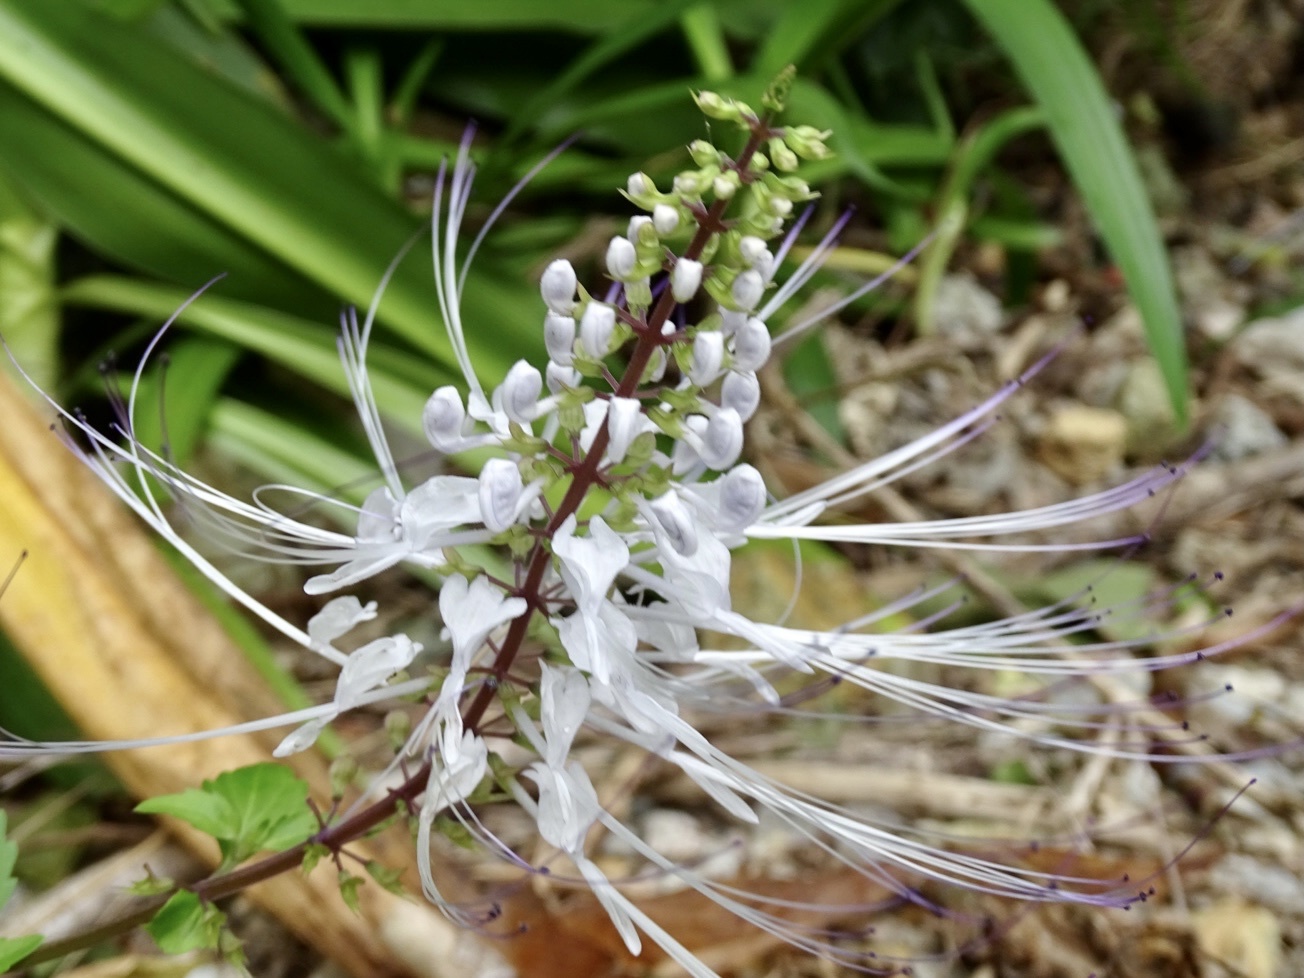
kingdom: Plantae
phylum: Tracheophyta
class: Magnoliopsida
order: Lamiales
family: Lamiaceae
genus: Orthosiphon
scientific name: Orthosiphon aristatus
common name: Whiskerplant
